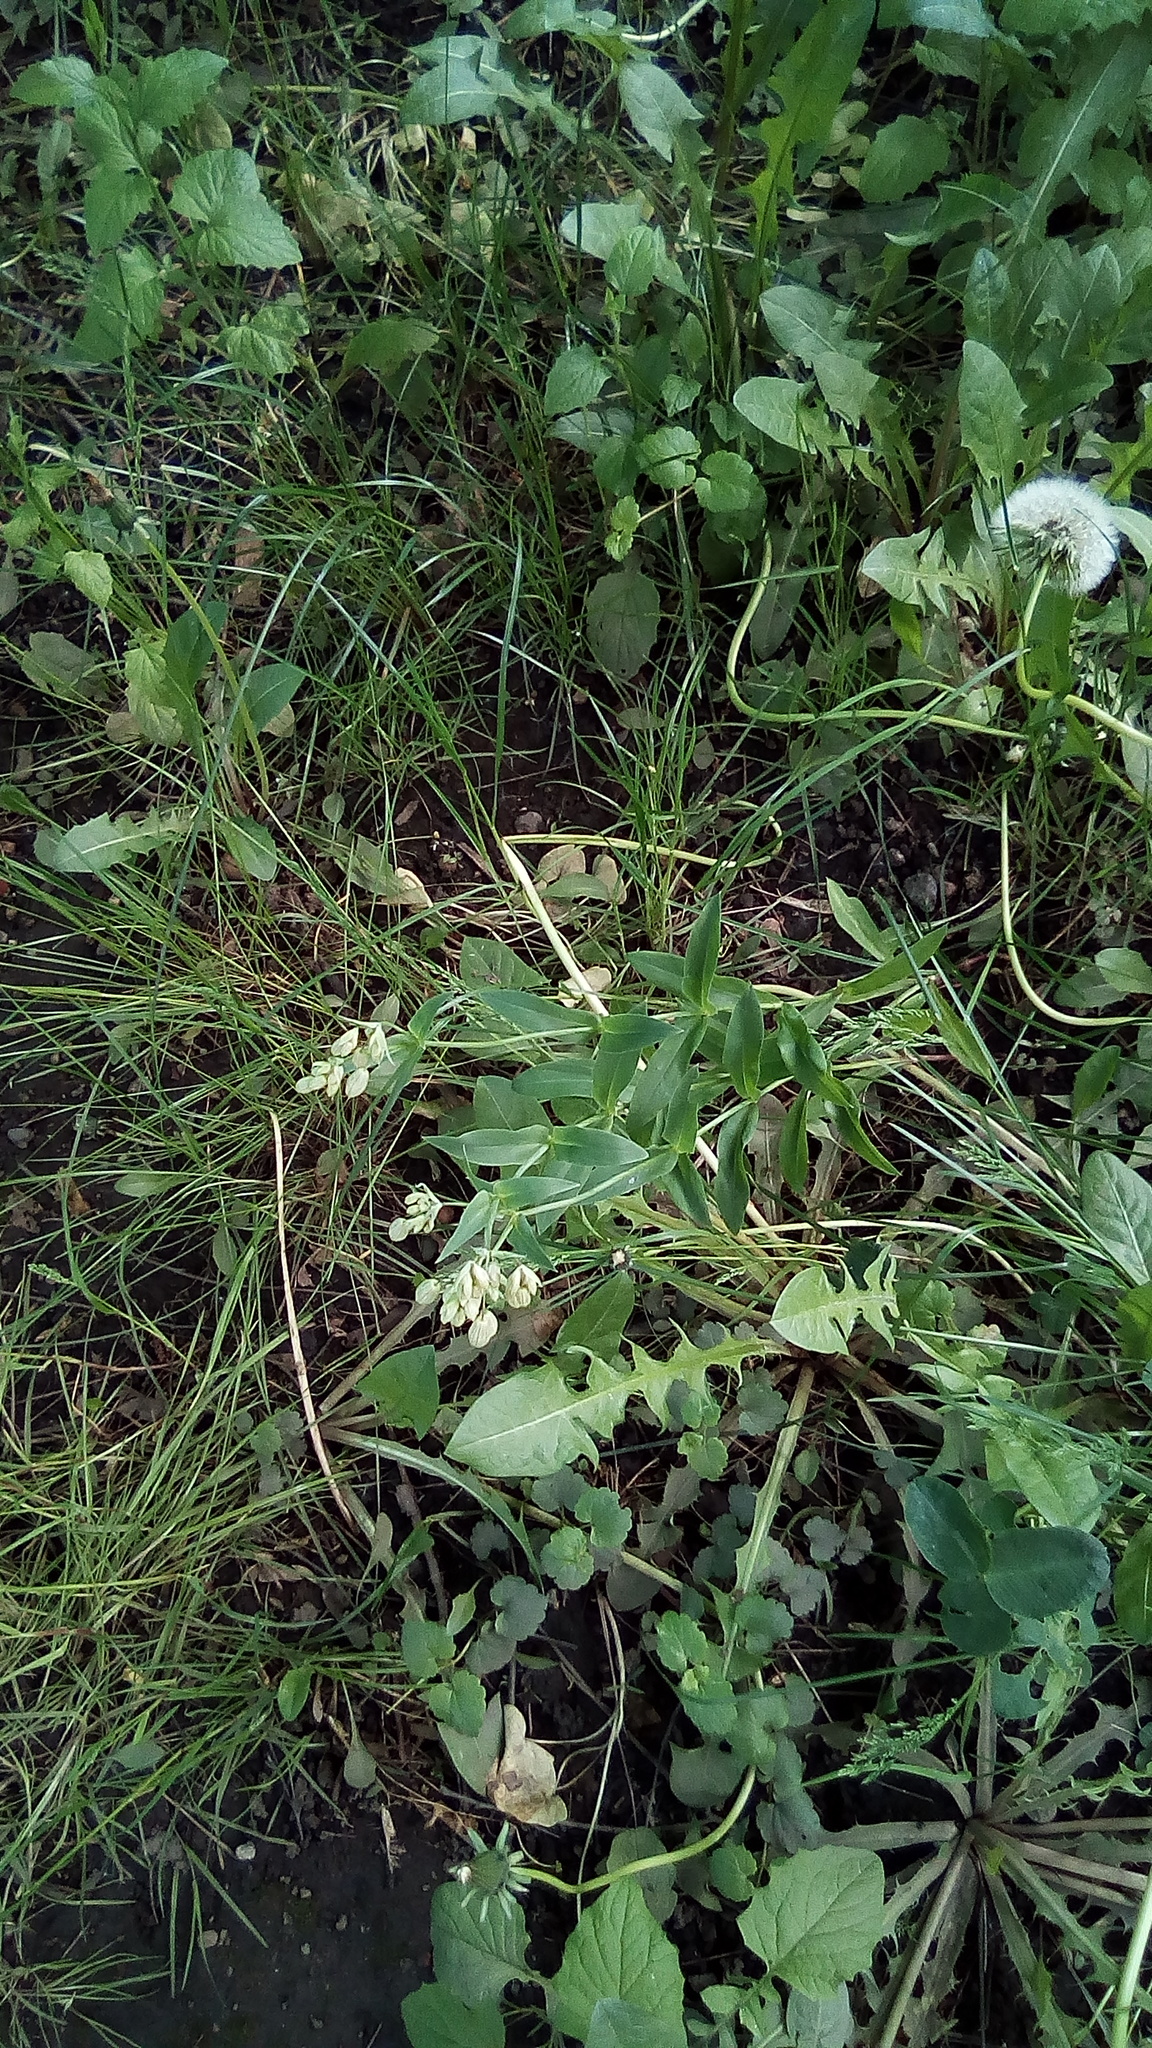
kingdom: Plantae
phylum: Tracheophyta
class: Magnoliopsida
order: Caryophyllales
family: Caryophyllaceae
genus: Silene
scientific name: Silene vulgaris
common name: Bladder campion
